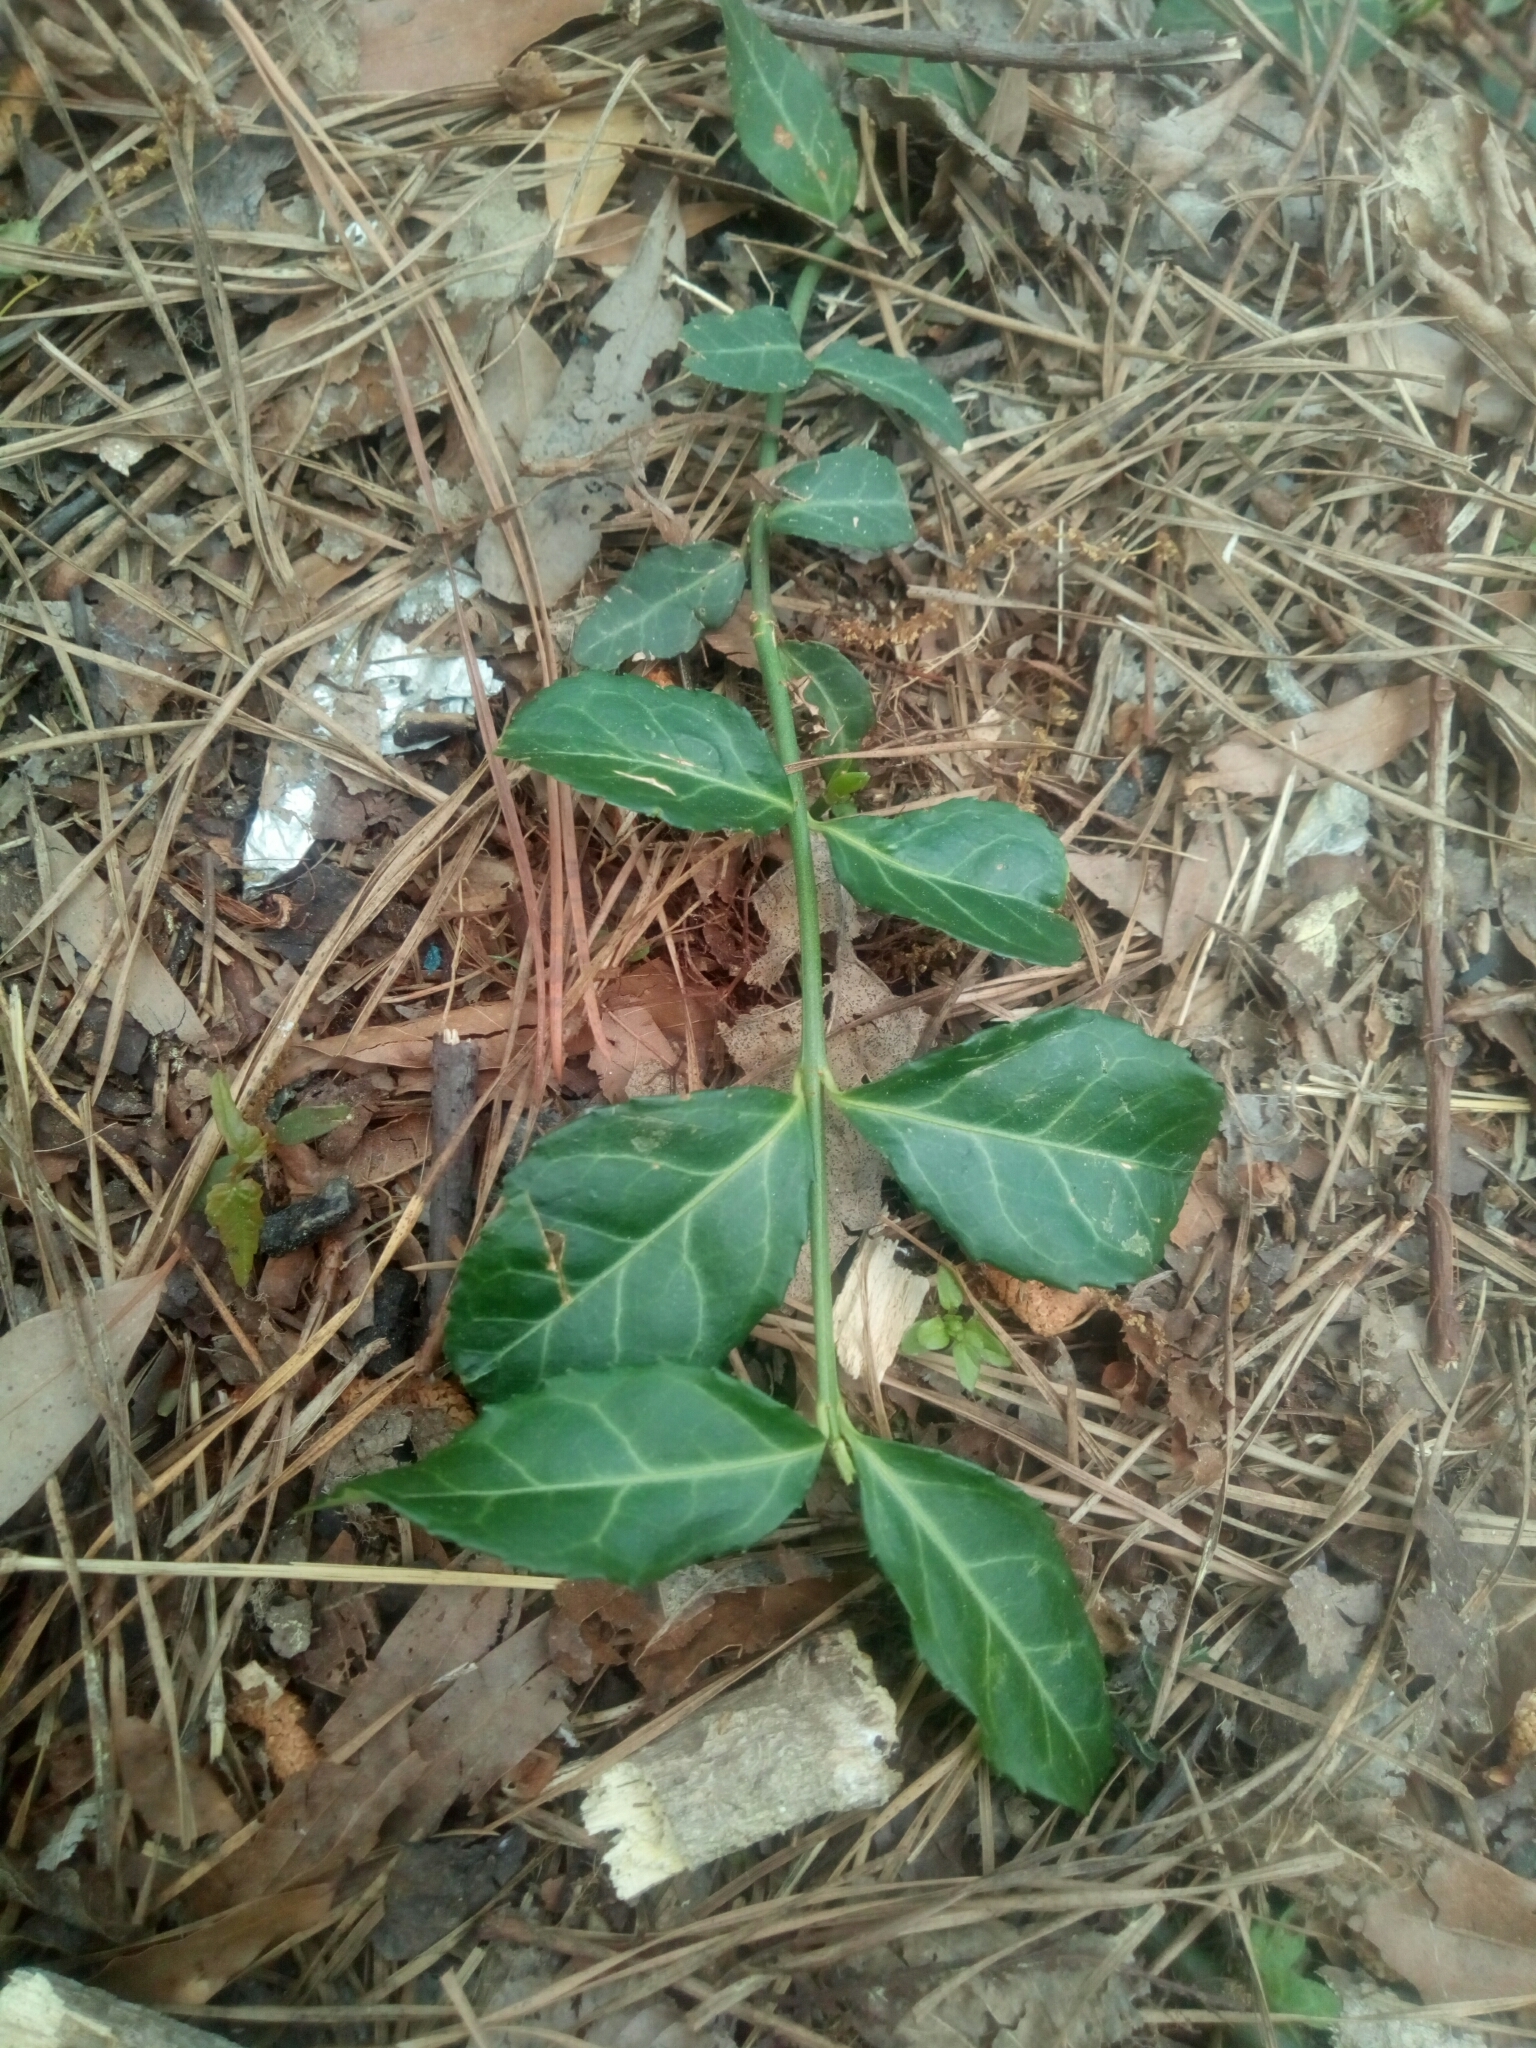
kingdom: Plantae
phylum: Tracheophyta
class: Magnoliopsida
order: Celastrales
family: Celastraceae
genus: Euonymus
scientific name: Euonymus fortunei
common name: Climbing euonymus
